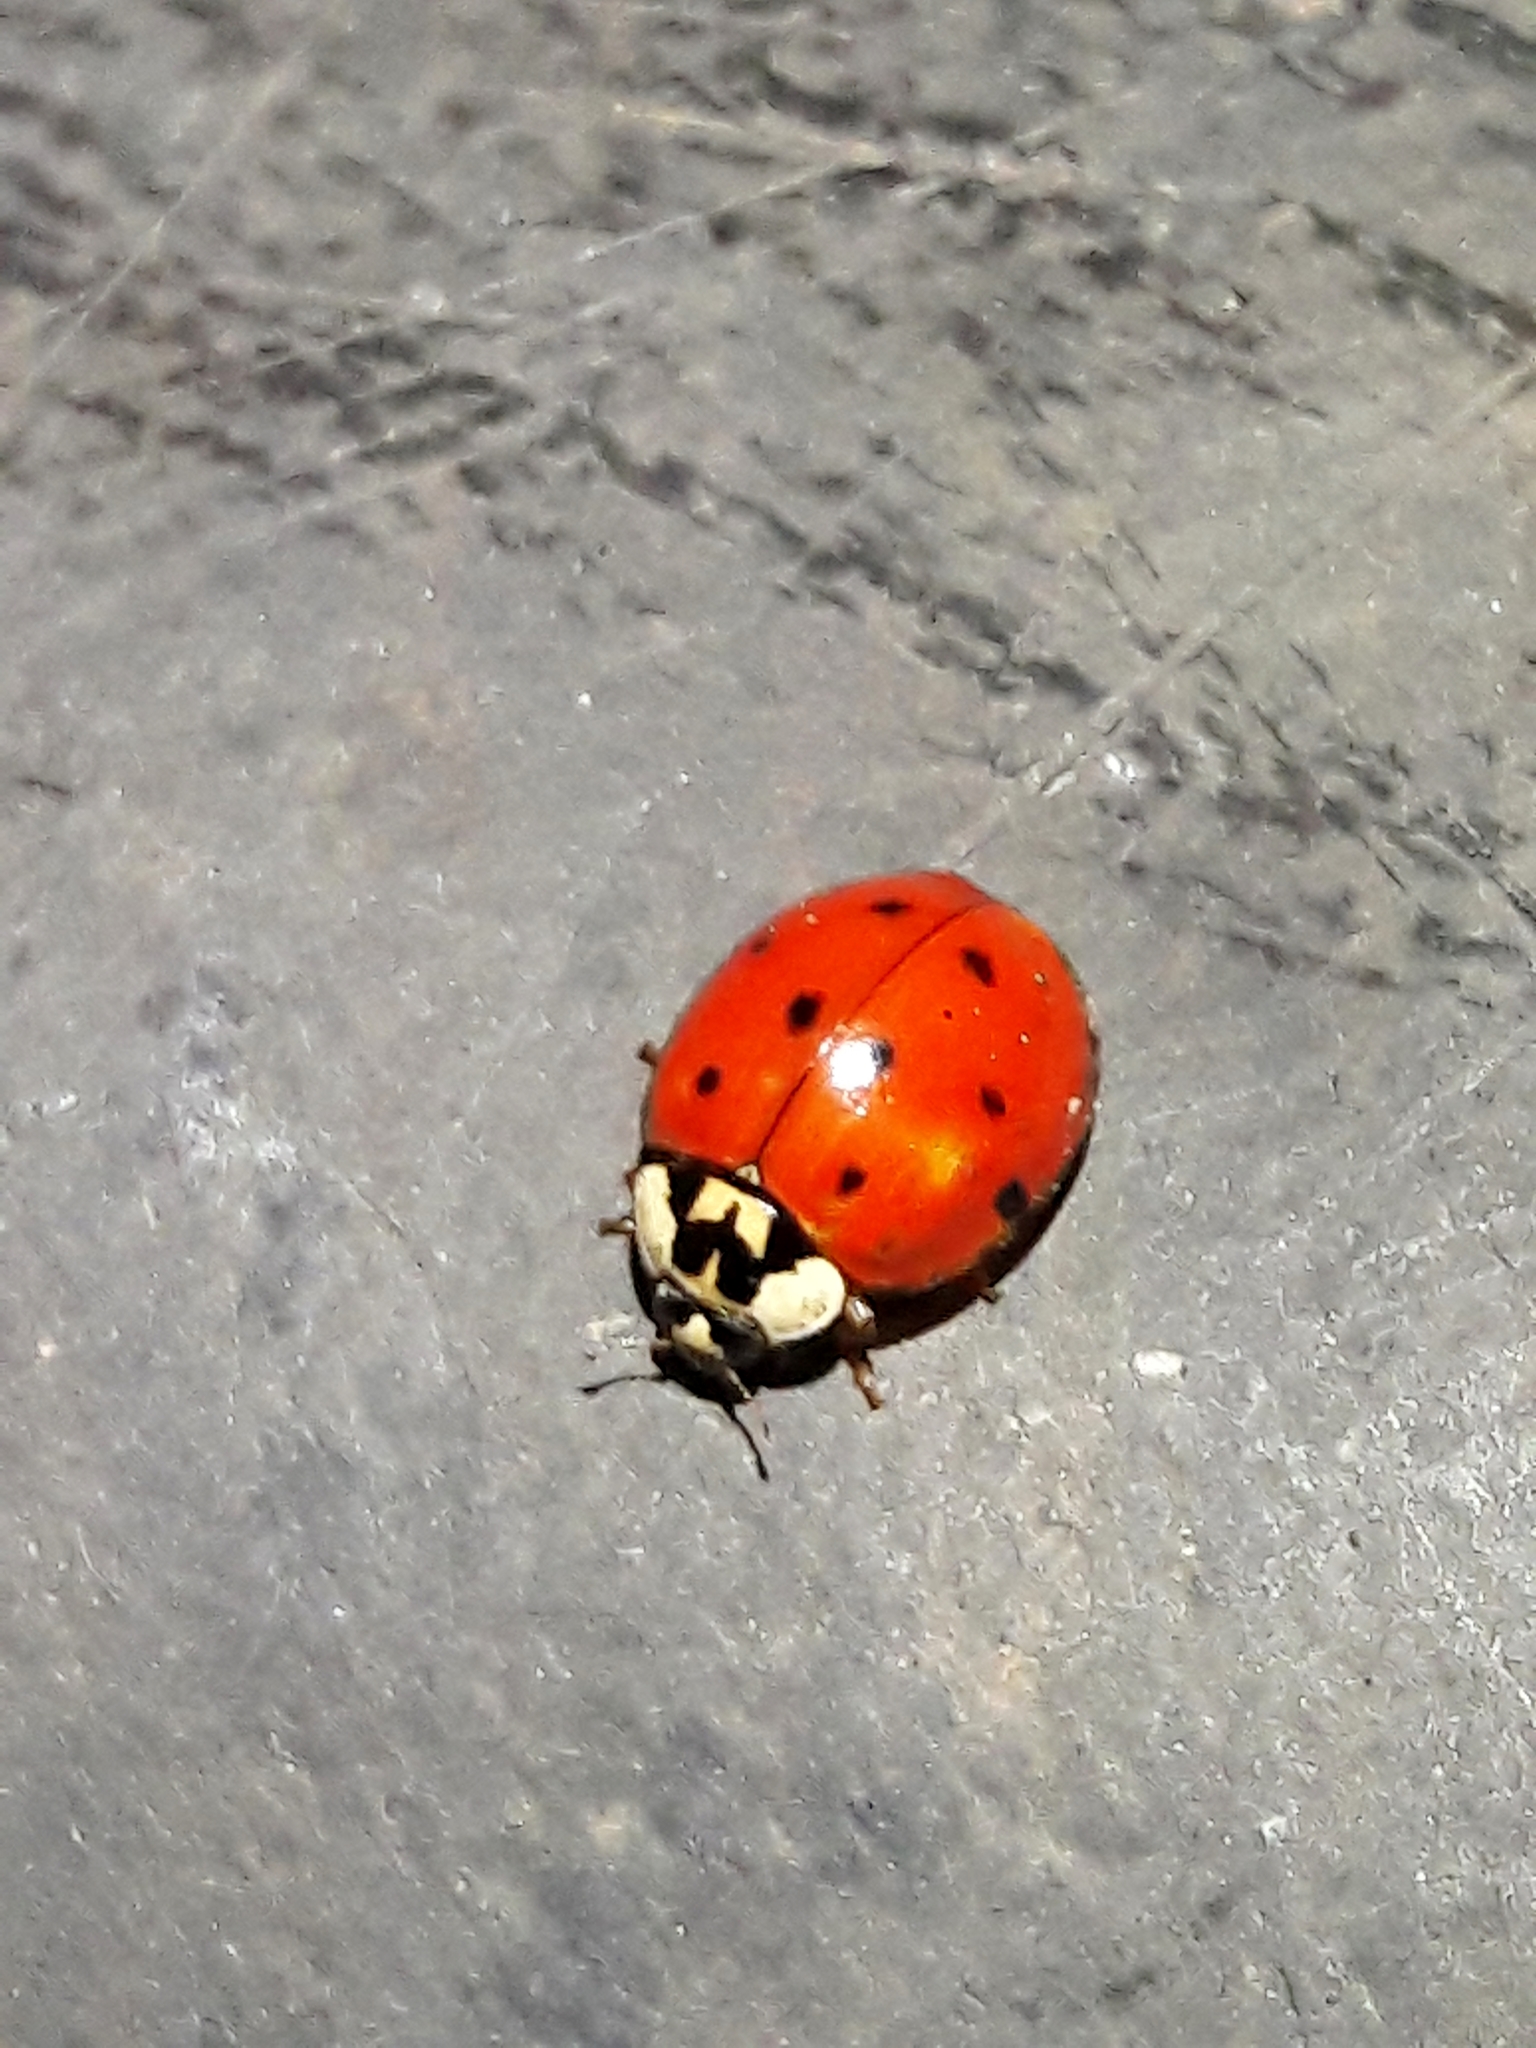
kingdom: Animalia
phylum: Arthropoda
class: Insecta
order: Coleoptera
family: Coccinellidae
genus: Harmonia
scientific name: Harmonia axyridis
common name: Harlequin ladybird
